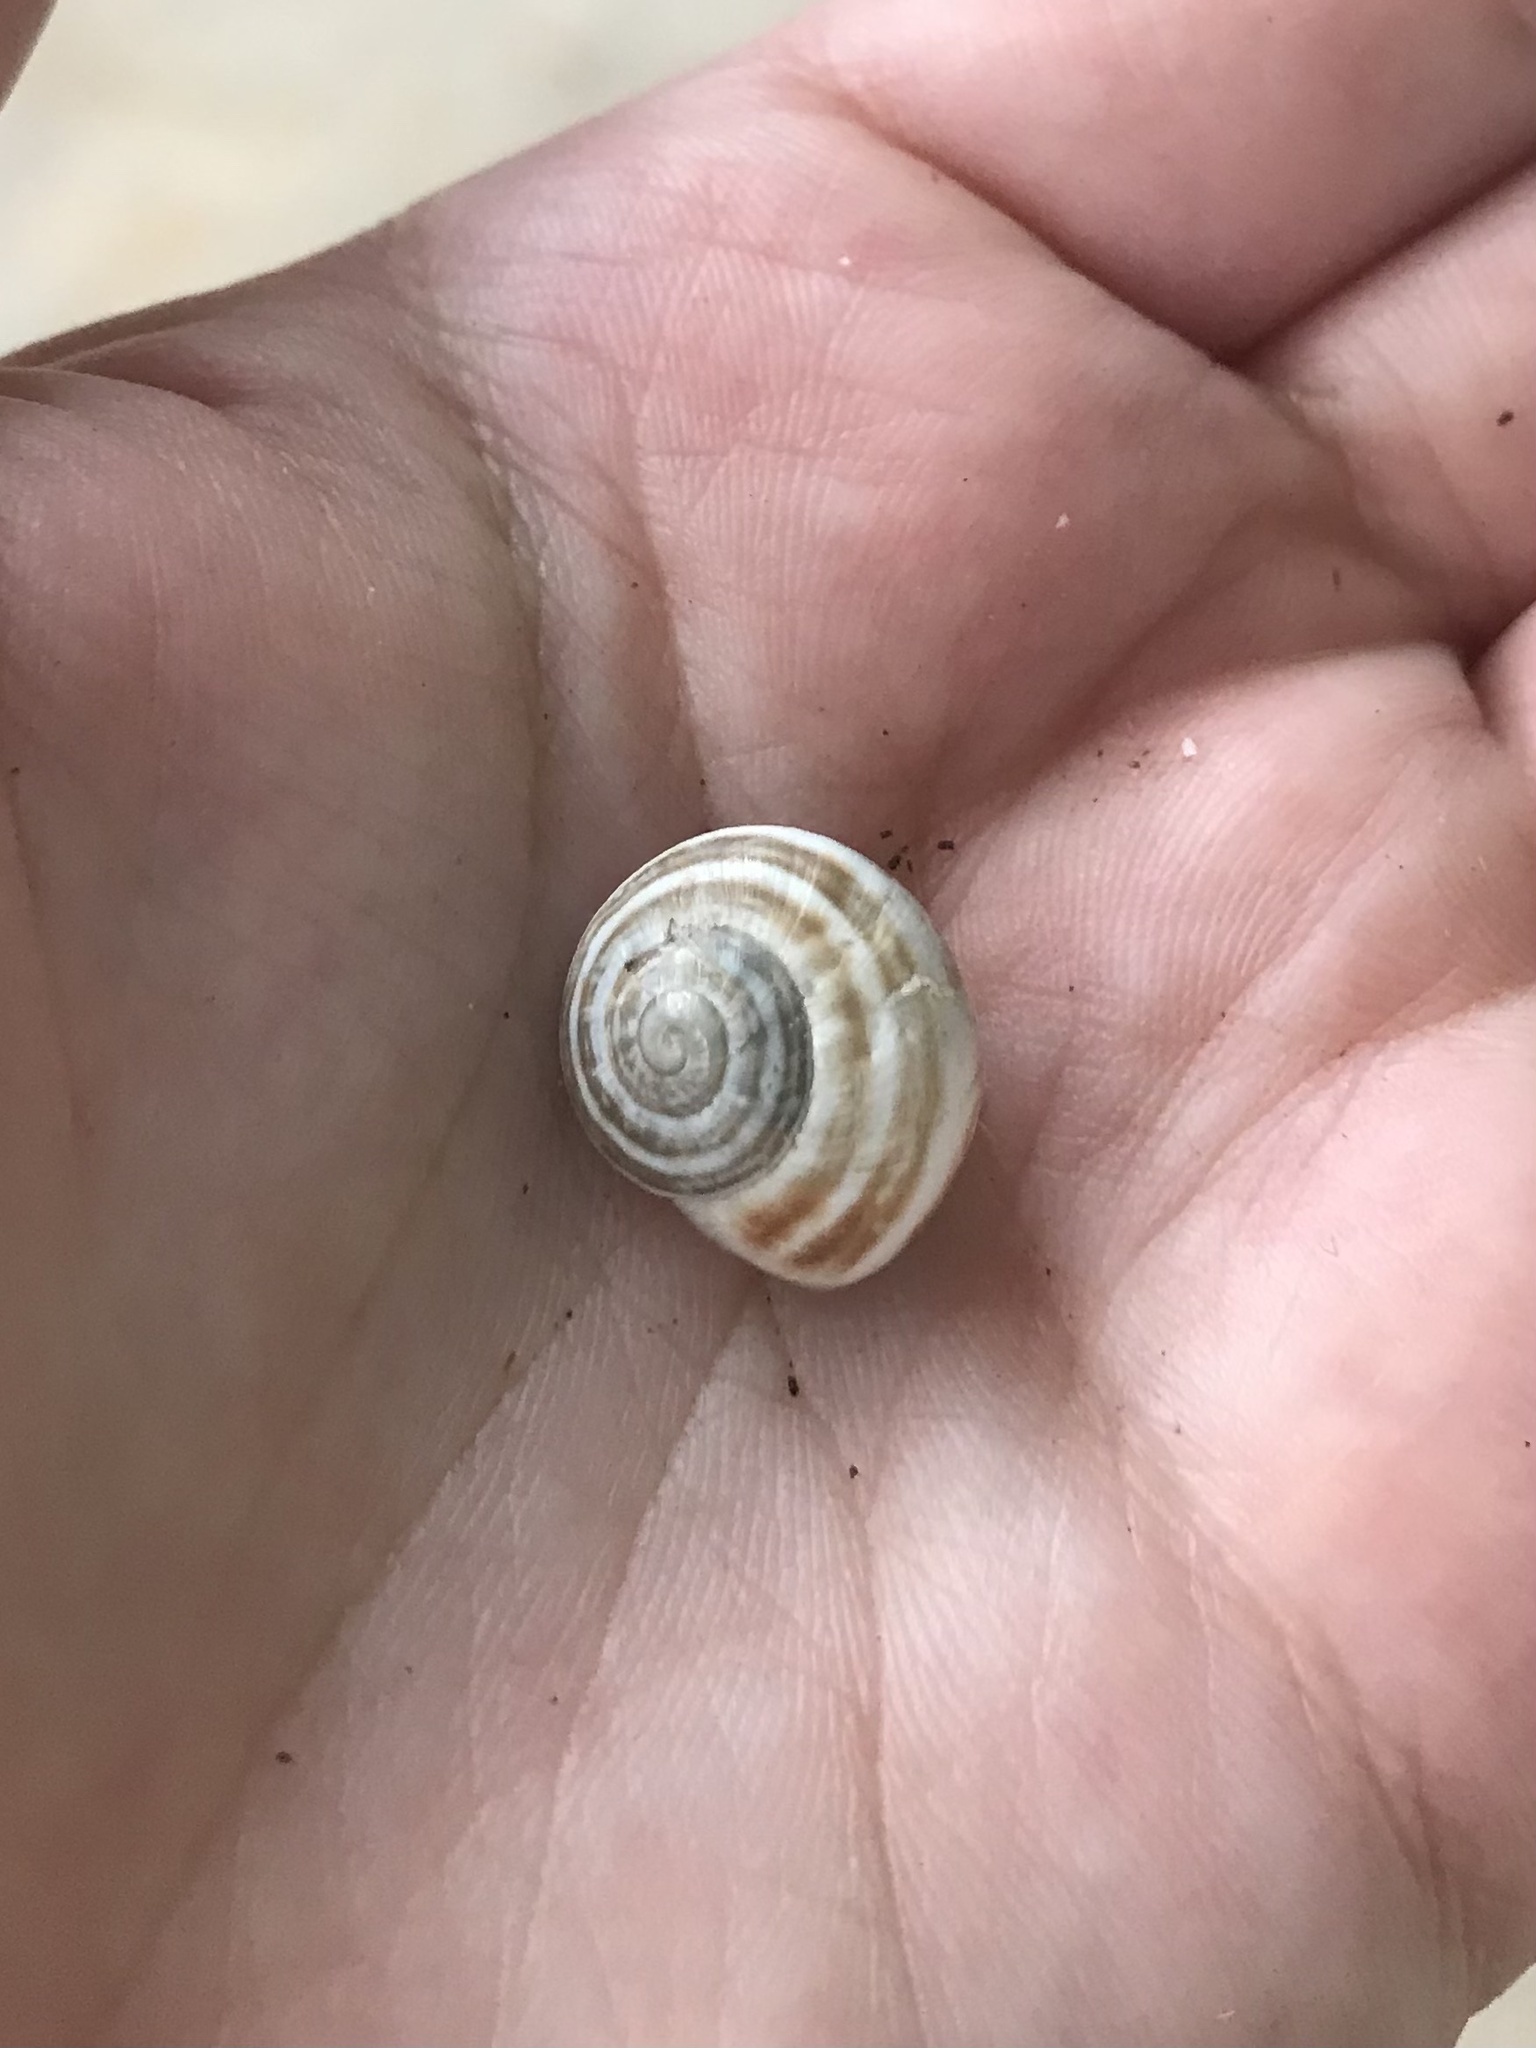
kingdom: Animalia
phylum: Mollusca
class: Gastropoda
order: Stylommatophora
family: Helicidae
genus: Otala
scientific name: Otala lactea
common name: Milk snail
